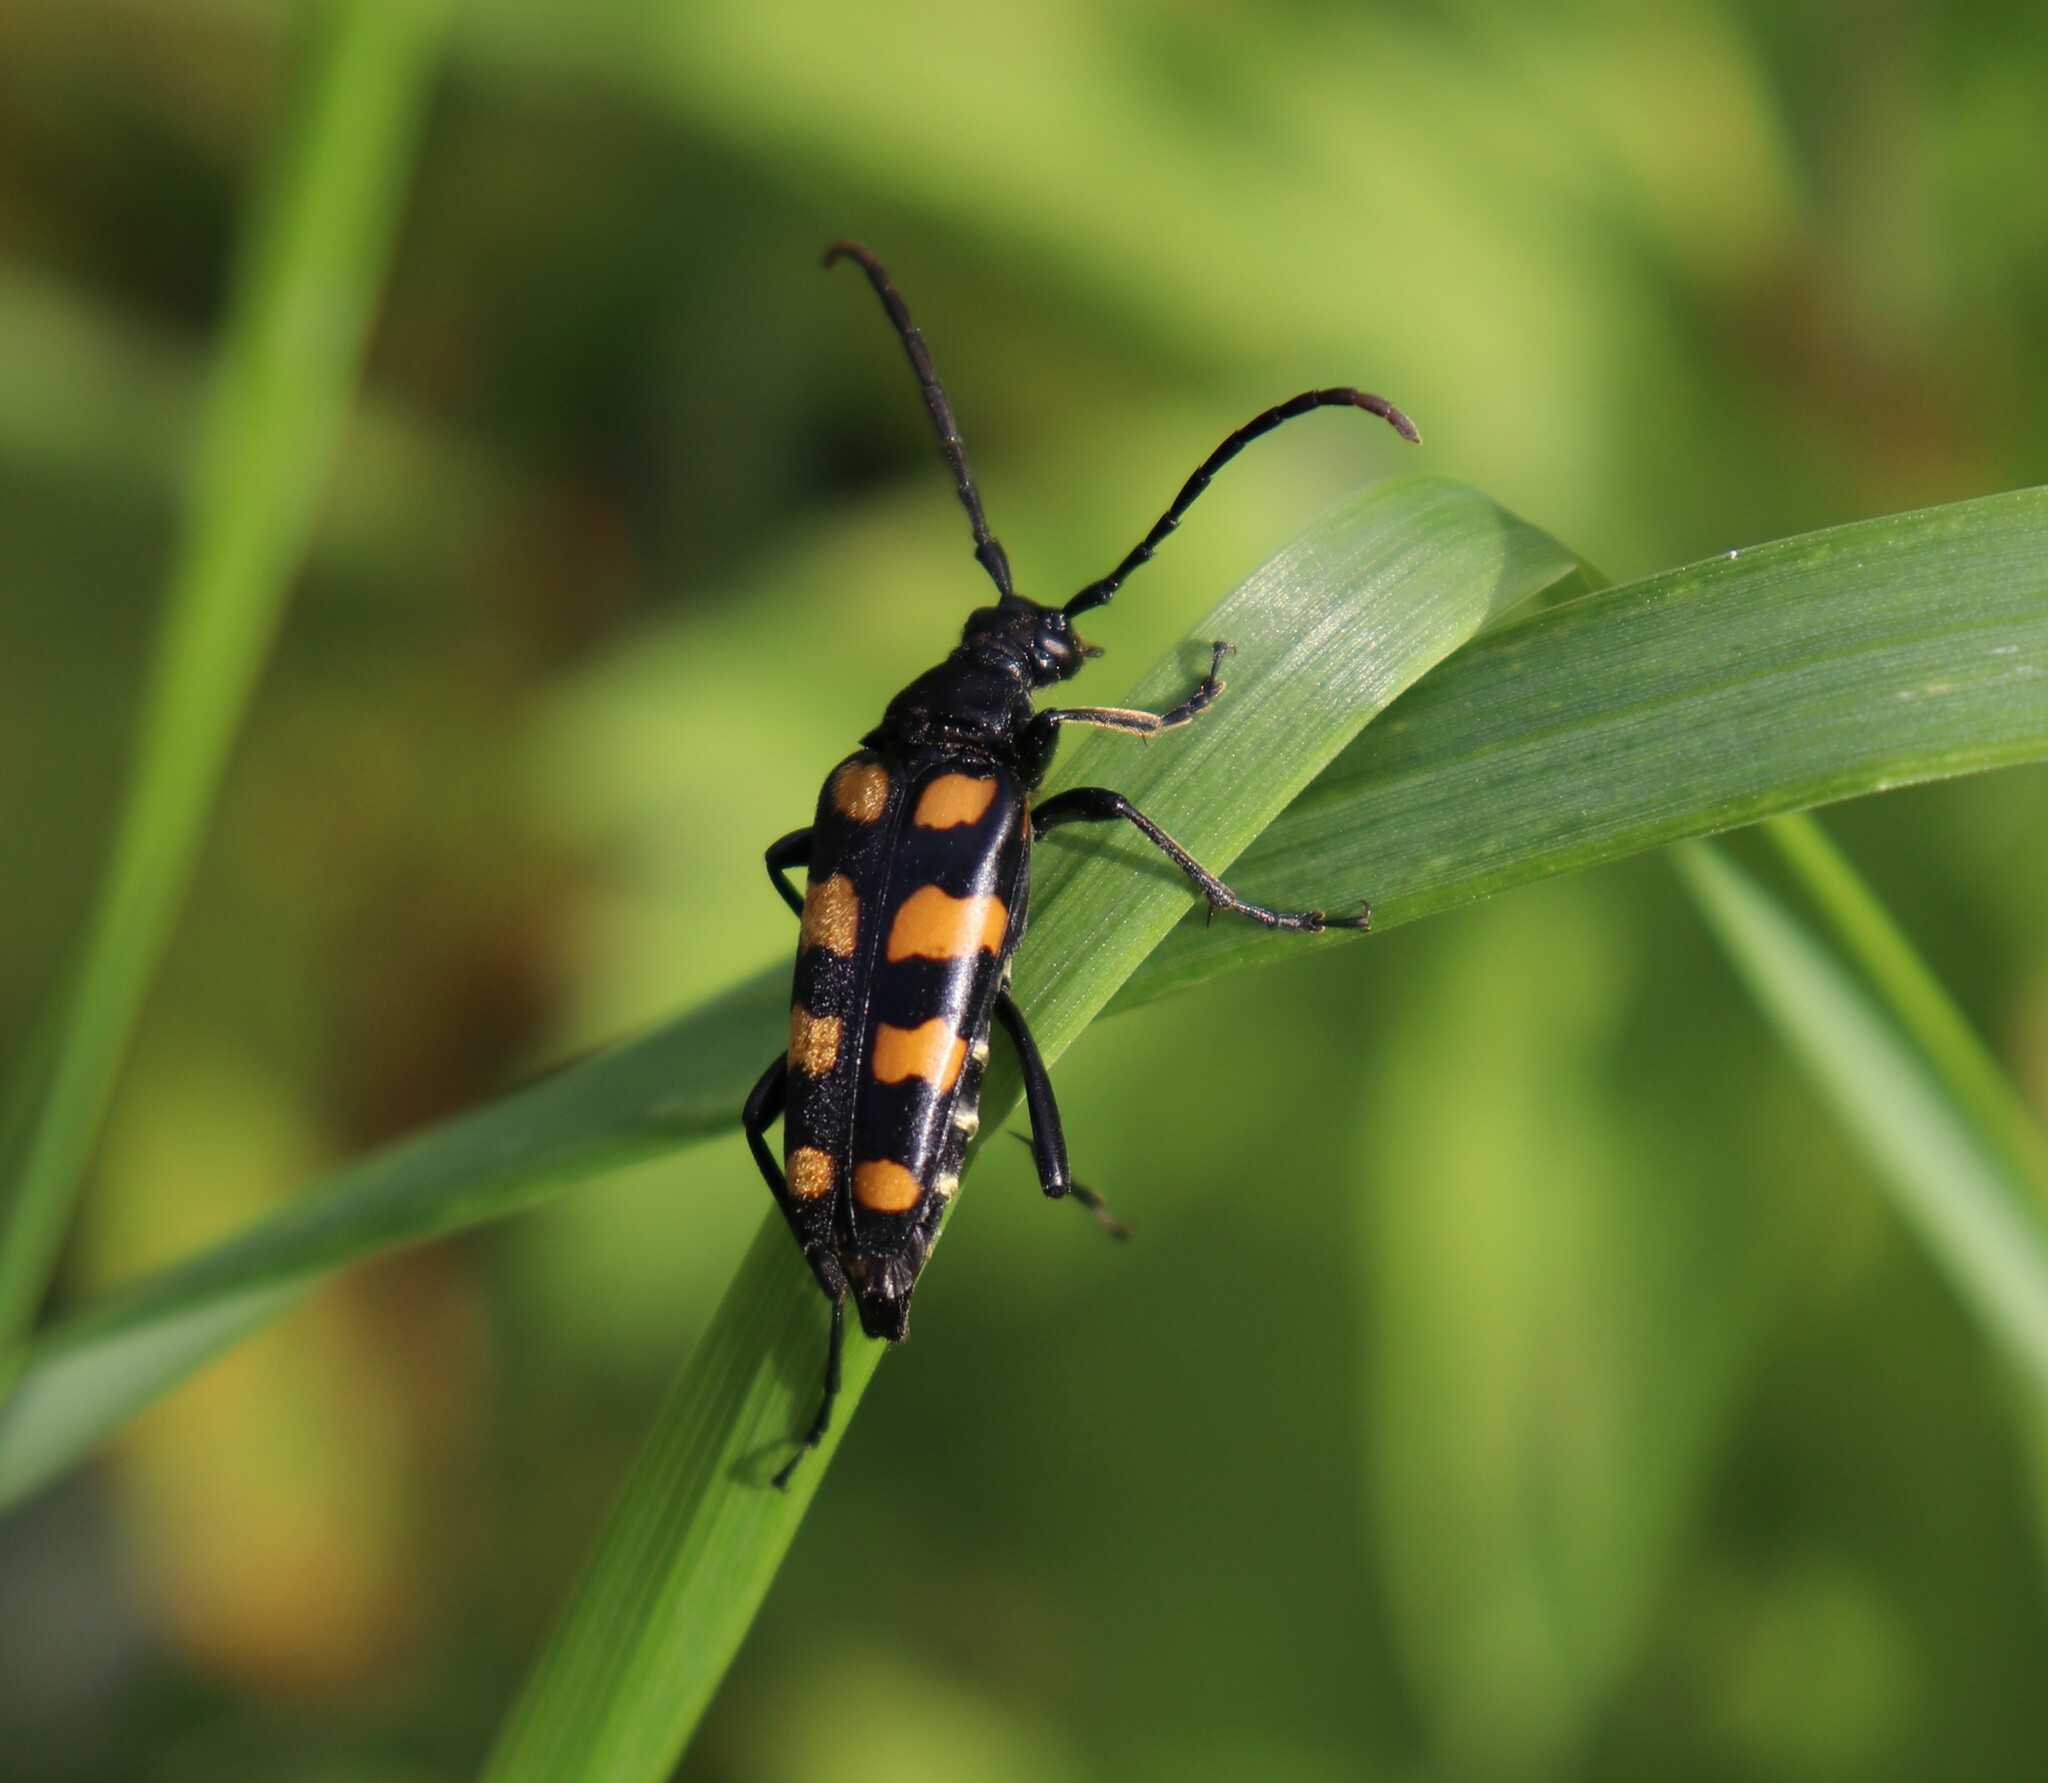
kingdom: Animalia
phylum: Arthropoda
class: Insecta
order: Coleoptera
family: Cerambycidae
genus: Leptura
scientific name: Leptura quadrifasciata
